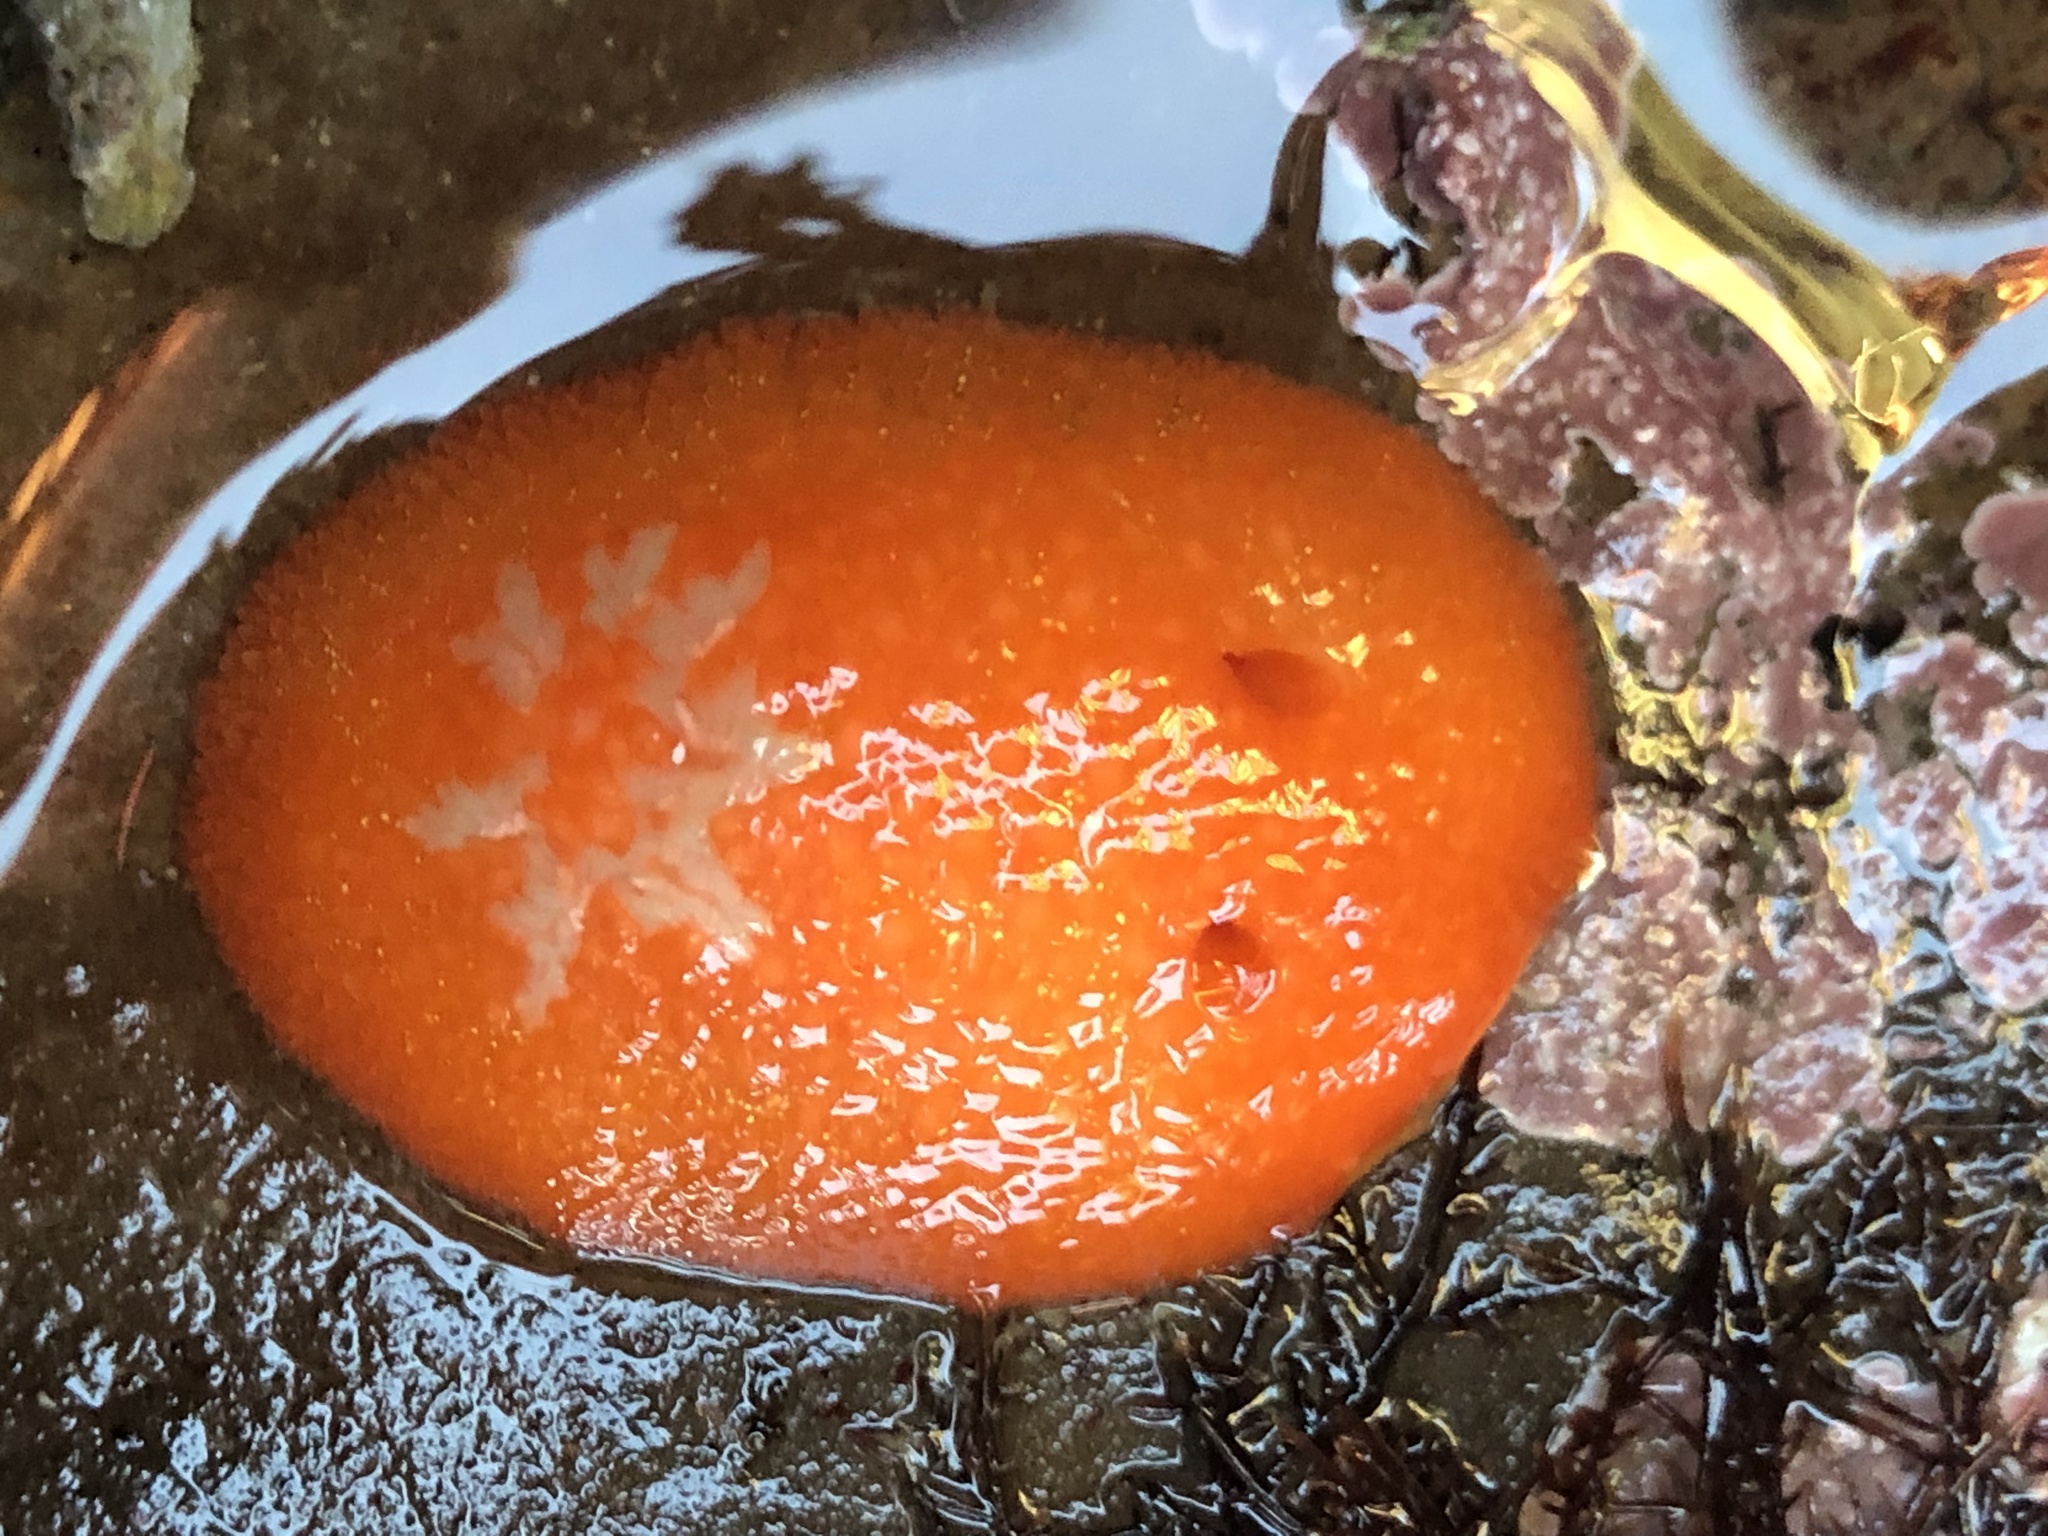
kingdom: Animalia
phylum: Mollusca
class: Gastropoda
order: Nudibranchia
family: Onchidorididae
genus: Acanthodoris
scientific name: Acanthodoris lutea
